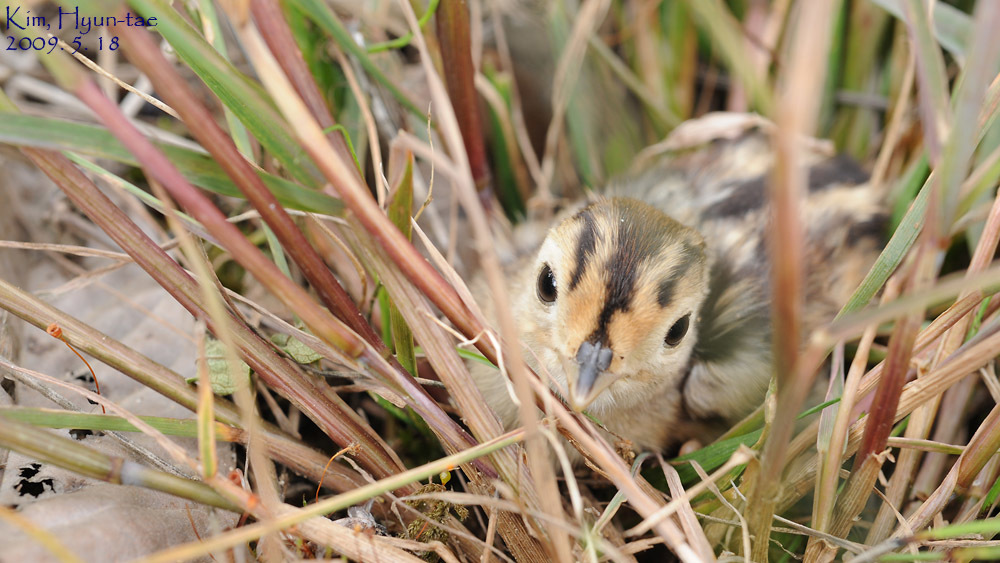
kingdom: Animalia
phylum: Chordata
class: Aves
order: Galliformes
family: Phasianidae
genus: Phasianus
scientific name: Phasianus colchicus
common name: Common pheasant
